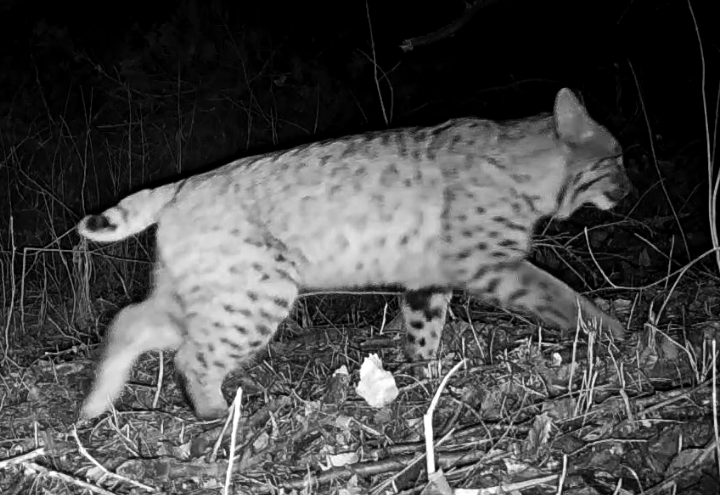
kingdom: Animalia
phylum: Chordata
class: Mammalia
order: Carnivora
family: Felidae
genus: Lynx
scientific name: Lynx rufus
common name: Bobcat
